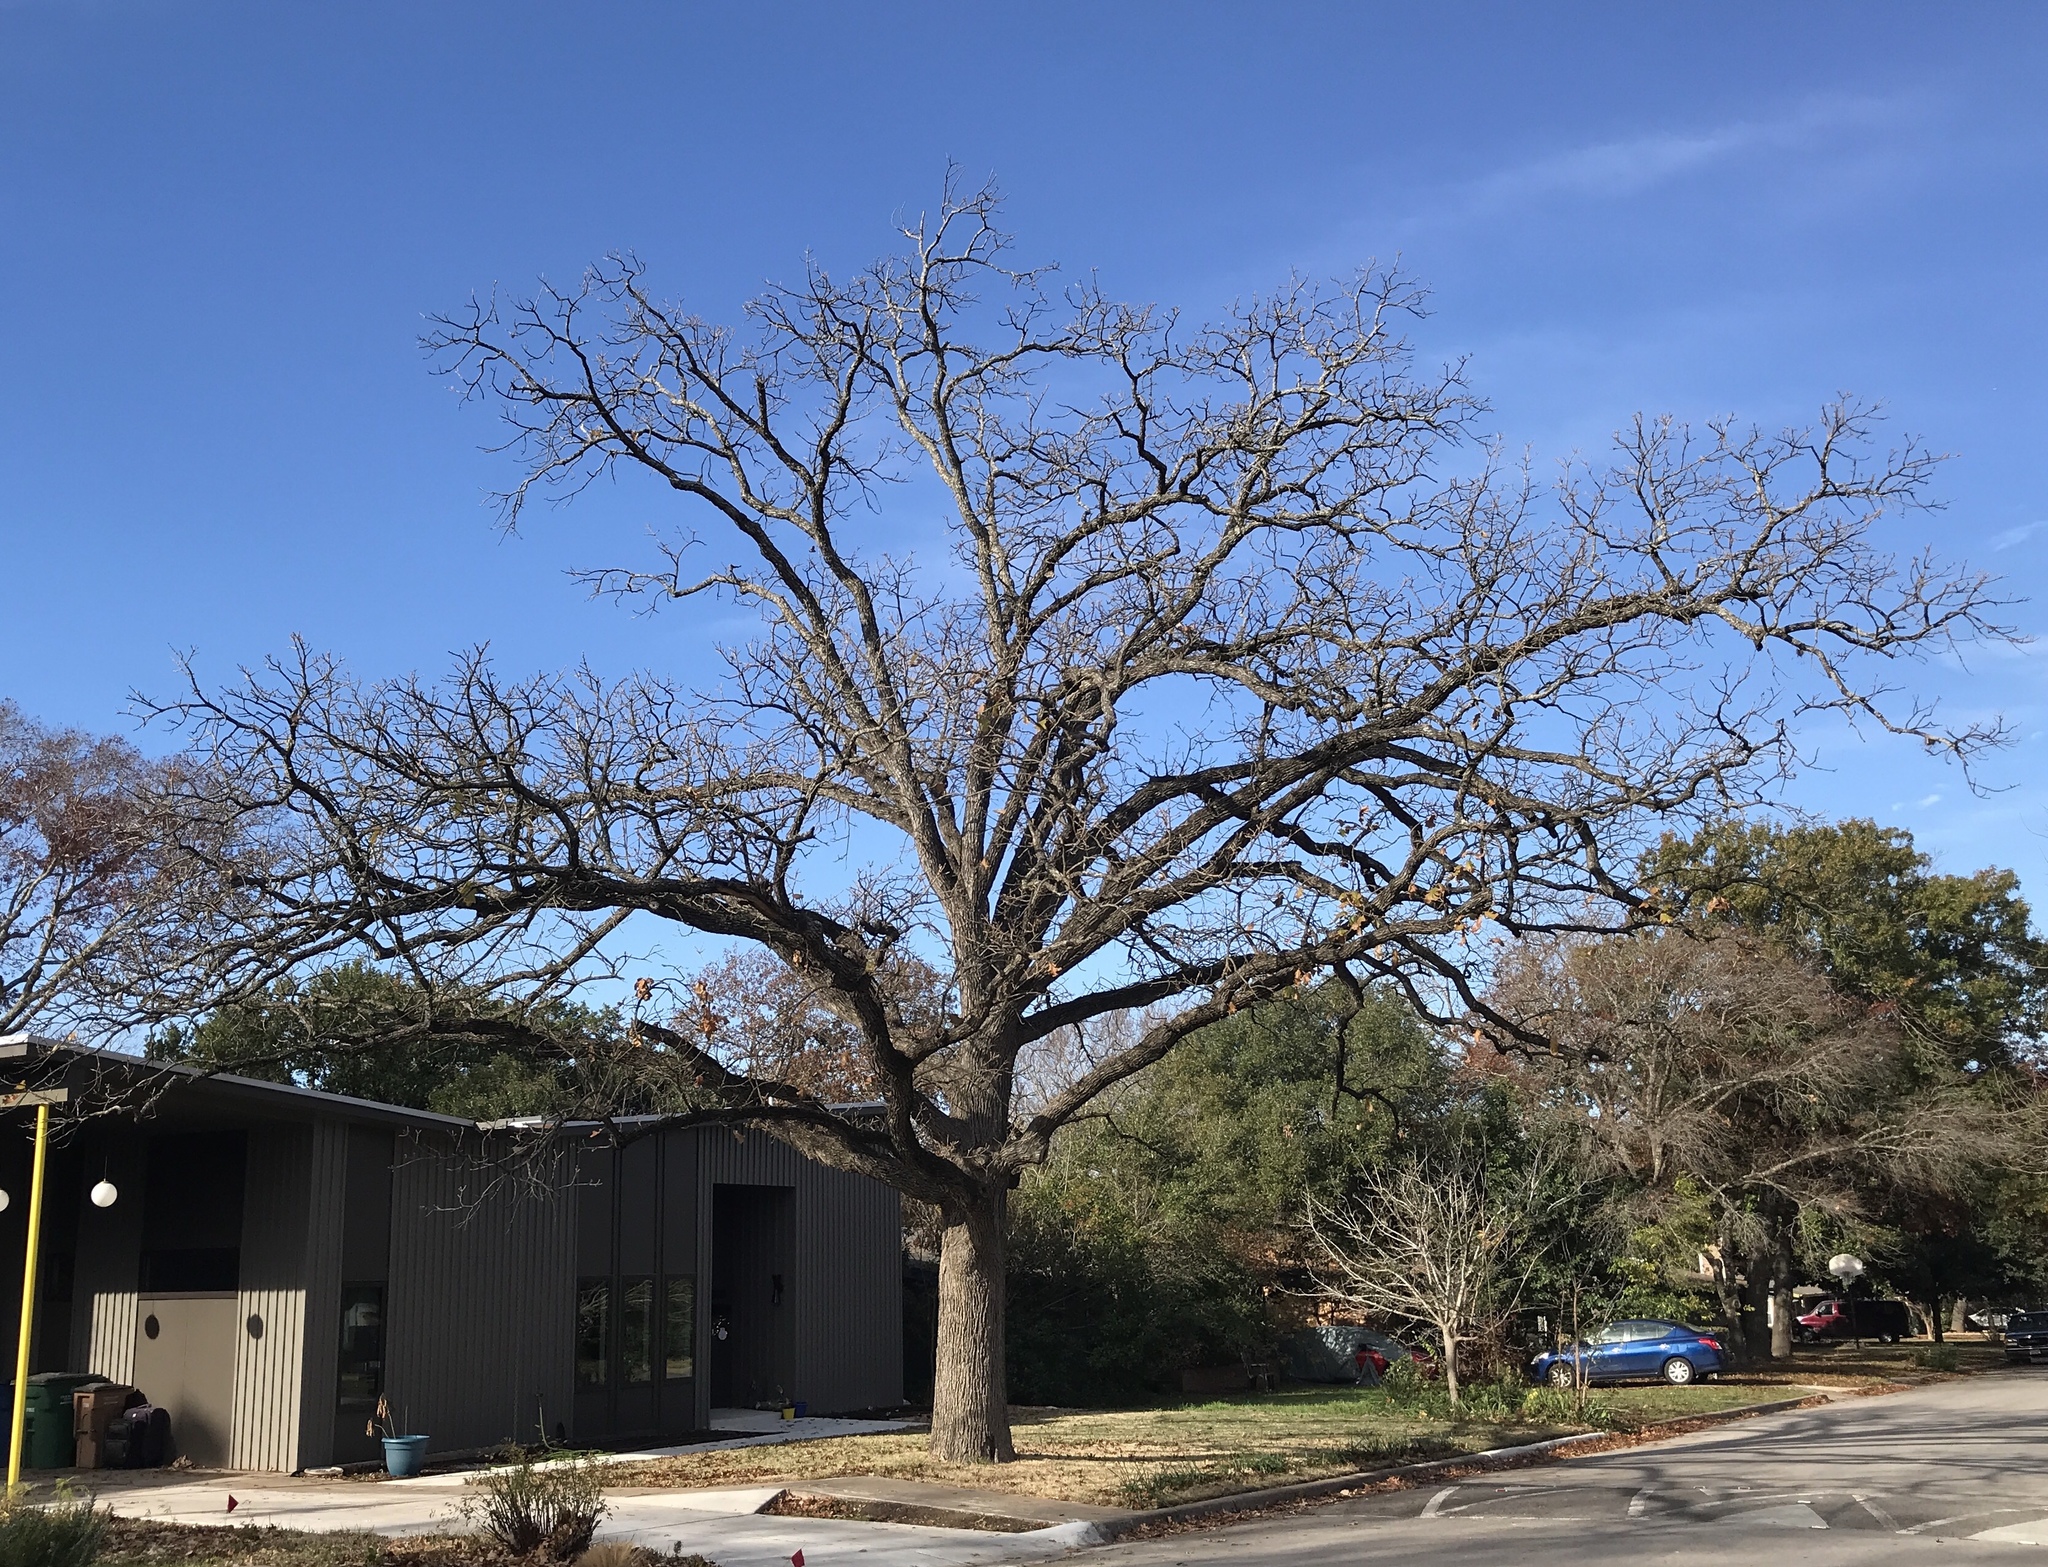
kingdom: Plantae
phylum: Tracheophyta
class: Magnoliopsida
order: Fagales
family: Fagaceae
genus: Quercus
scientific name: Quercus macrocarpa
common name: Bur oak
